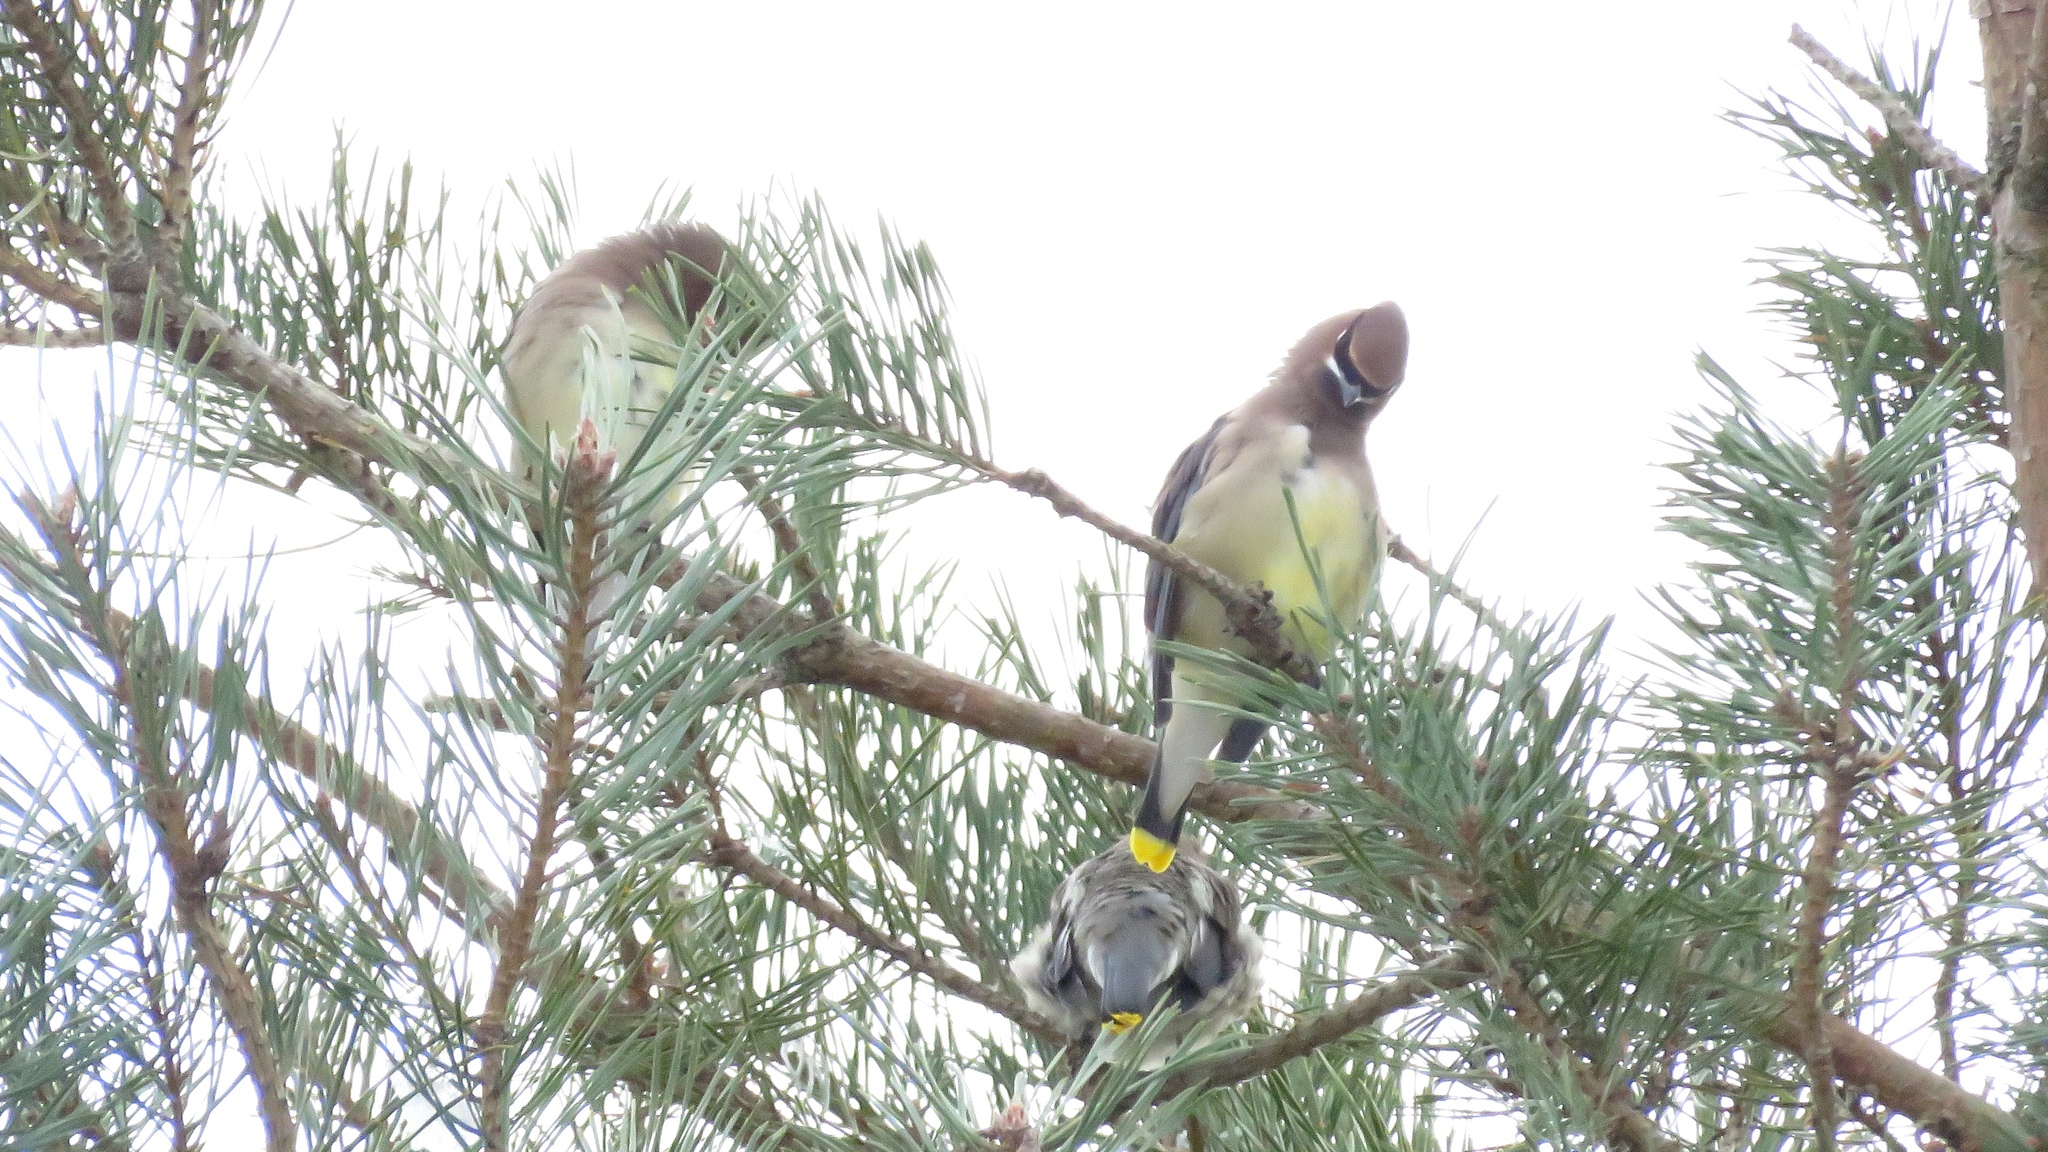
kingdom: Animalia
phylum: Chordata
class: Aves
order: Passeriformes
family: Bombycillidae
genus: Bombycilla
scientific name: Bombycilla cedrorum
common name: Cedar waxwing
